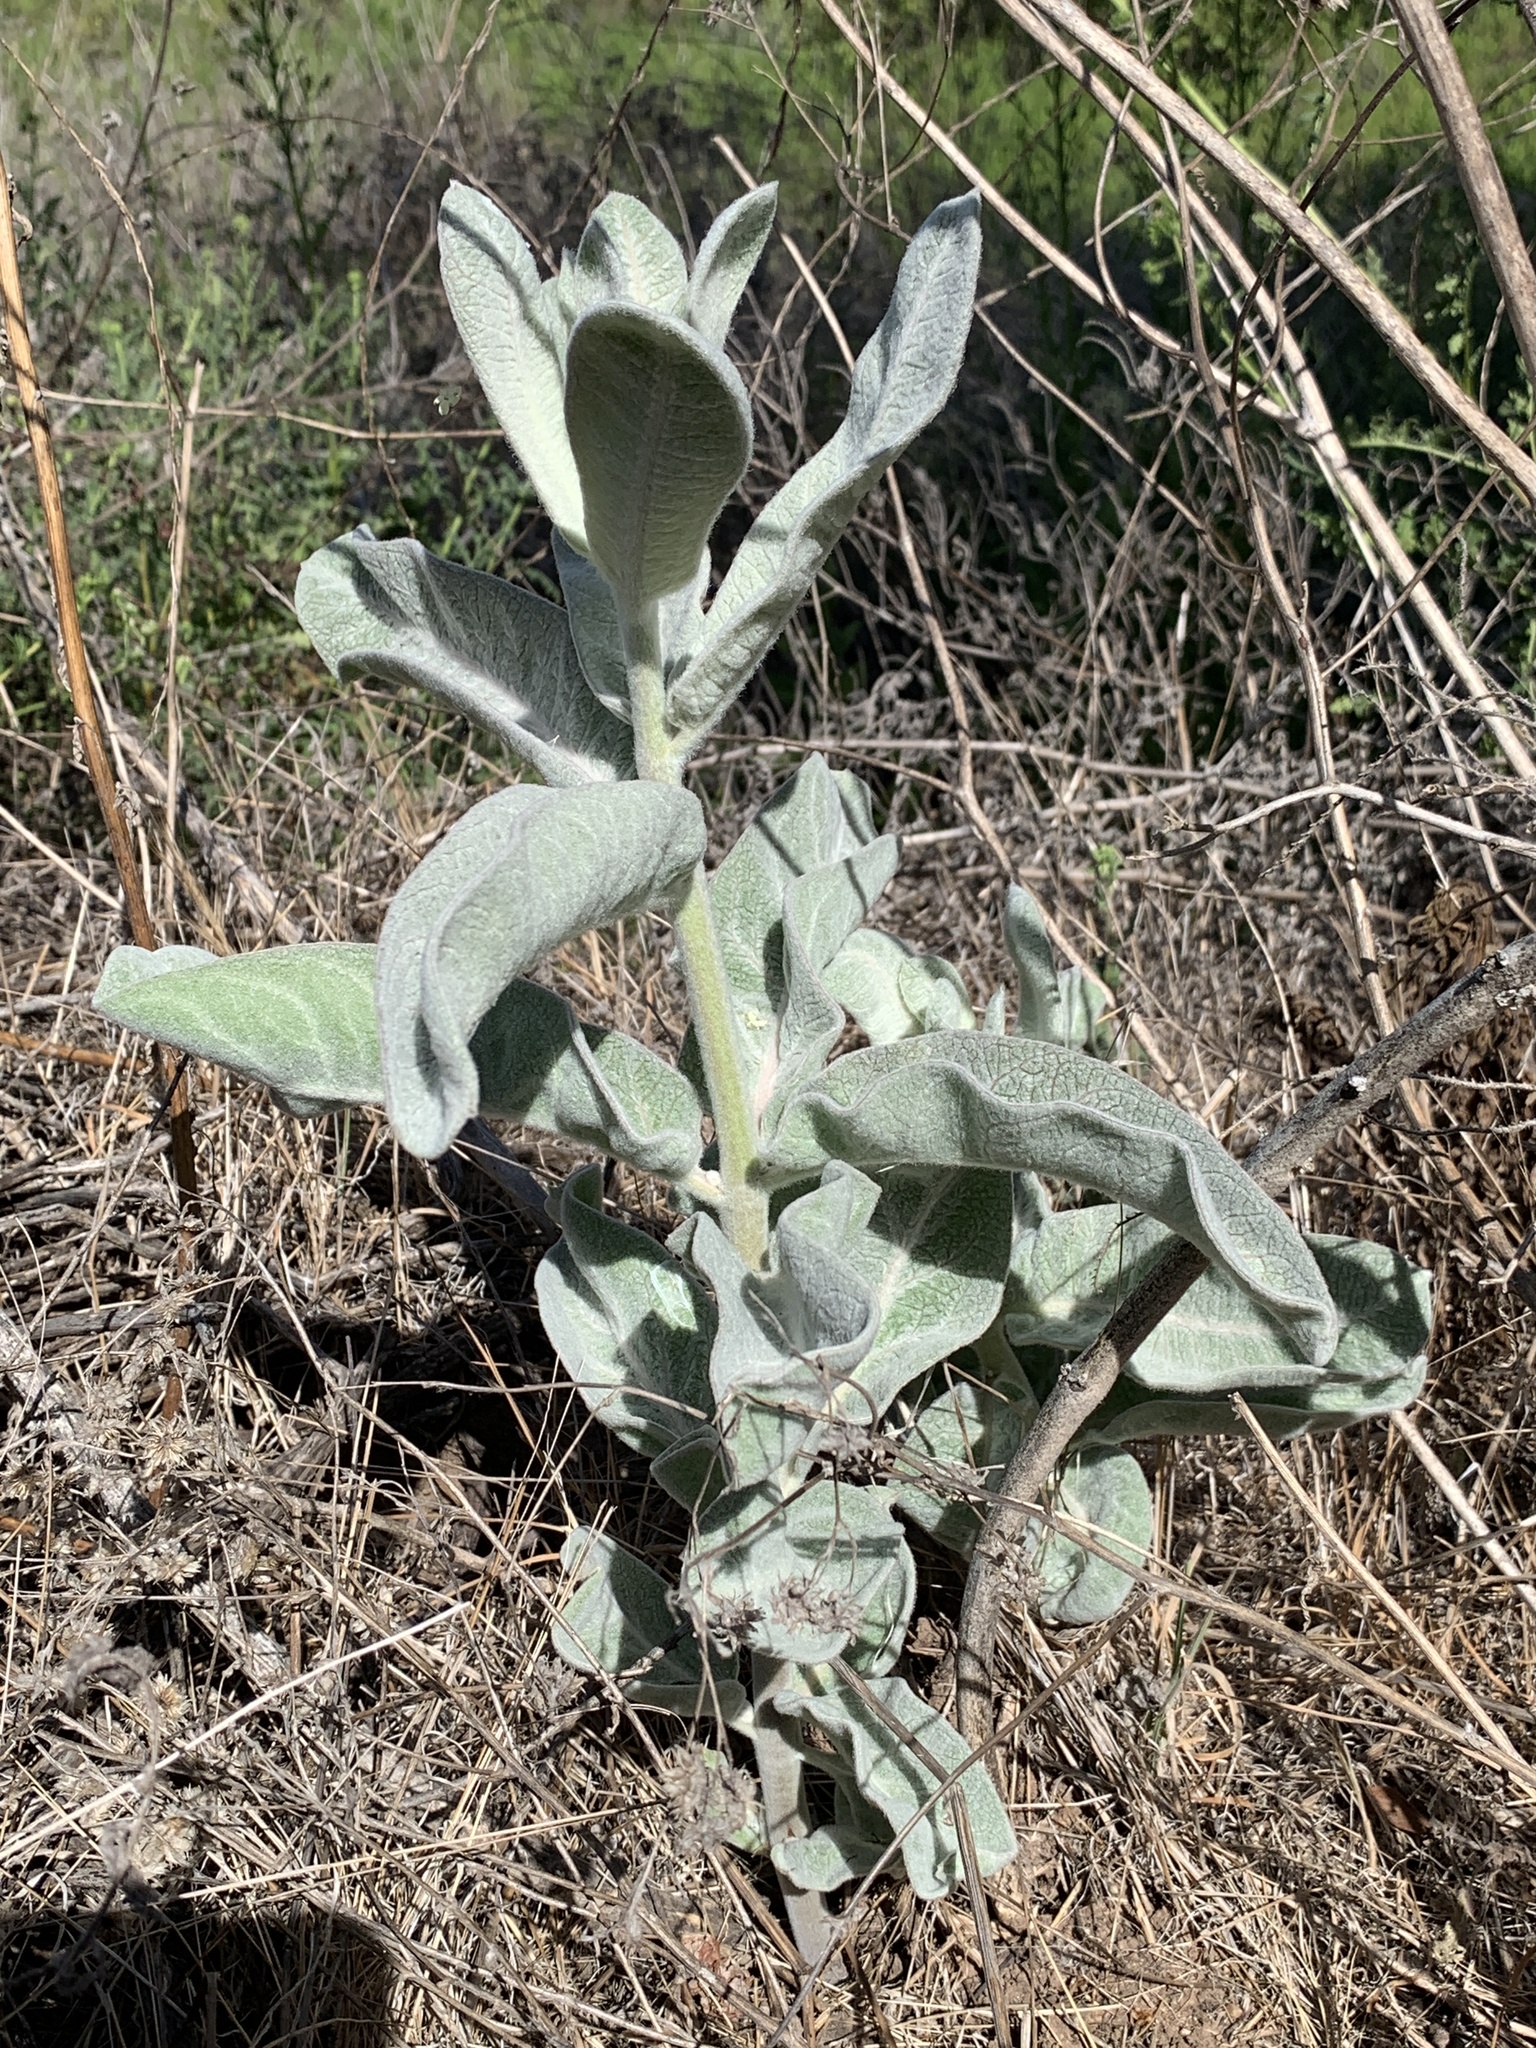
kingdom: Plantae
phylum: Tracheophyta
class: Magnoliopsida
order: Gentianales
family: Apocynaceae
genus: Asclepias
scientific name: Asclepias eriocarpa
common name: Indian milkweed
